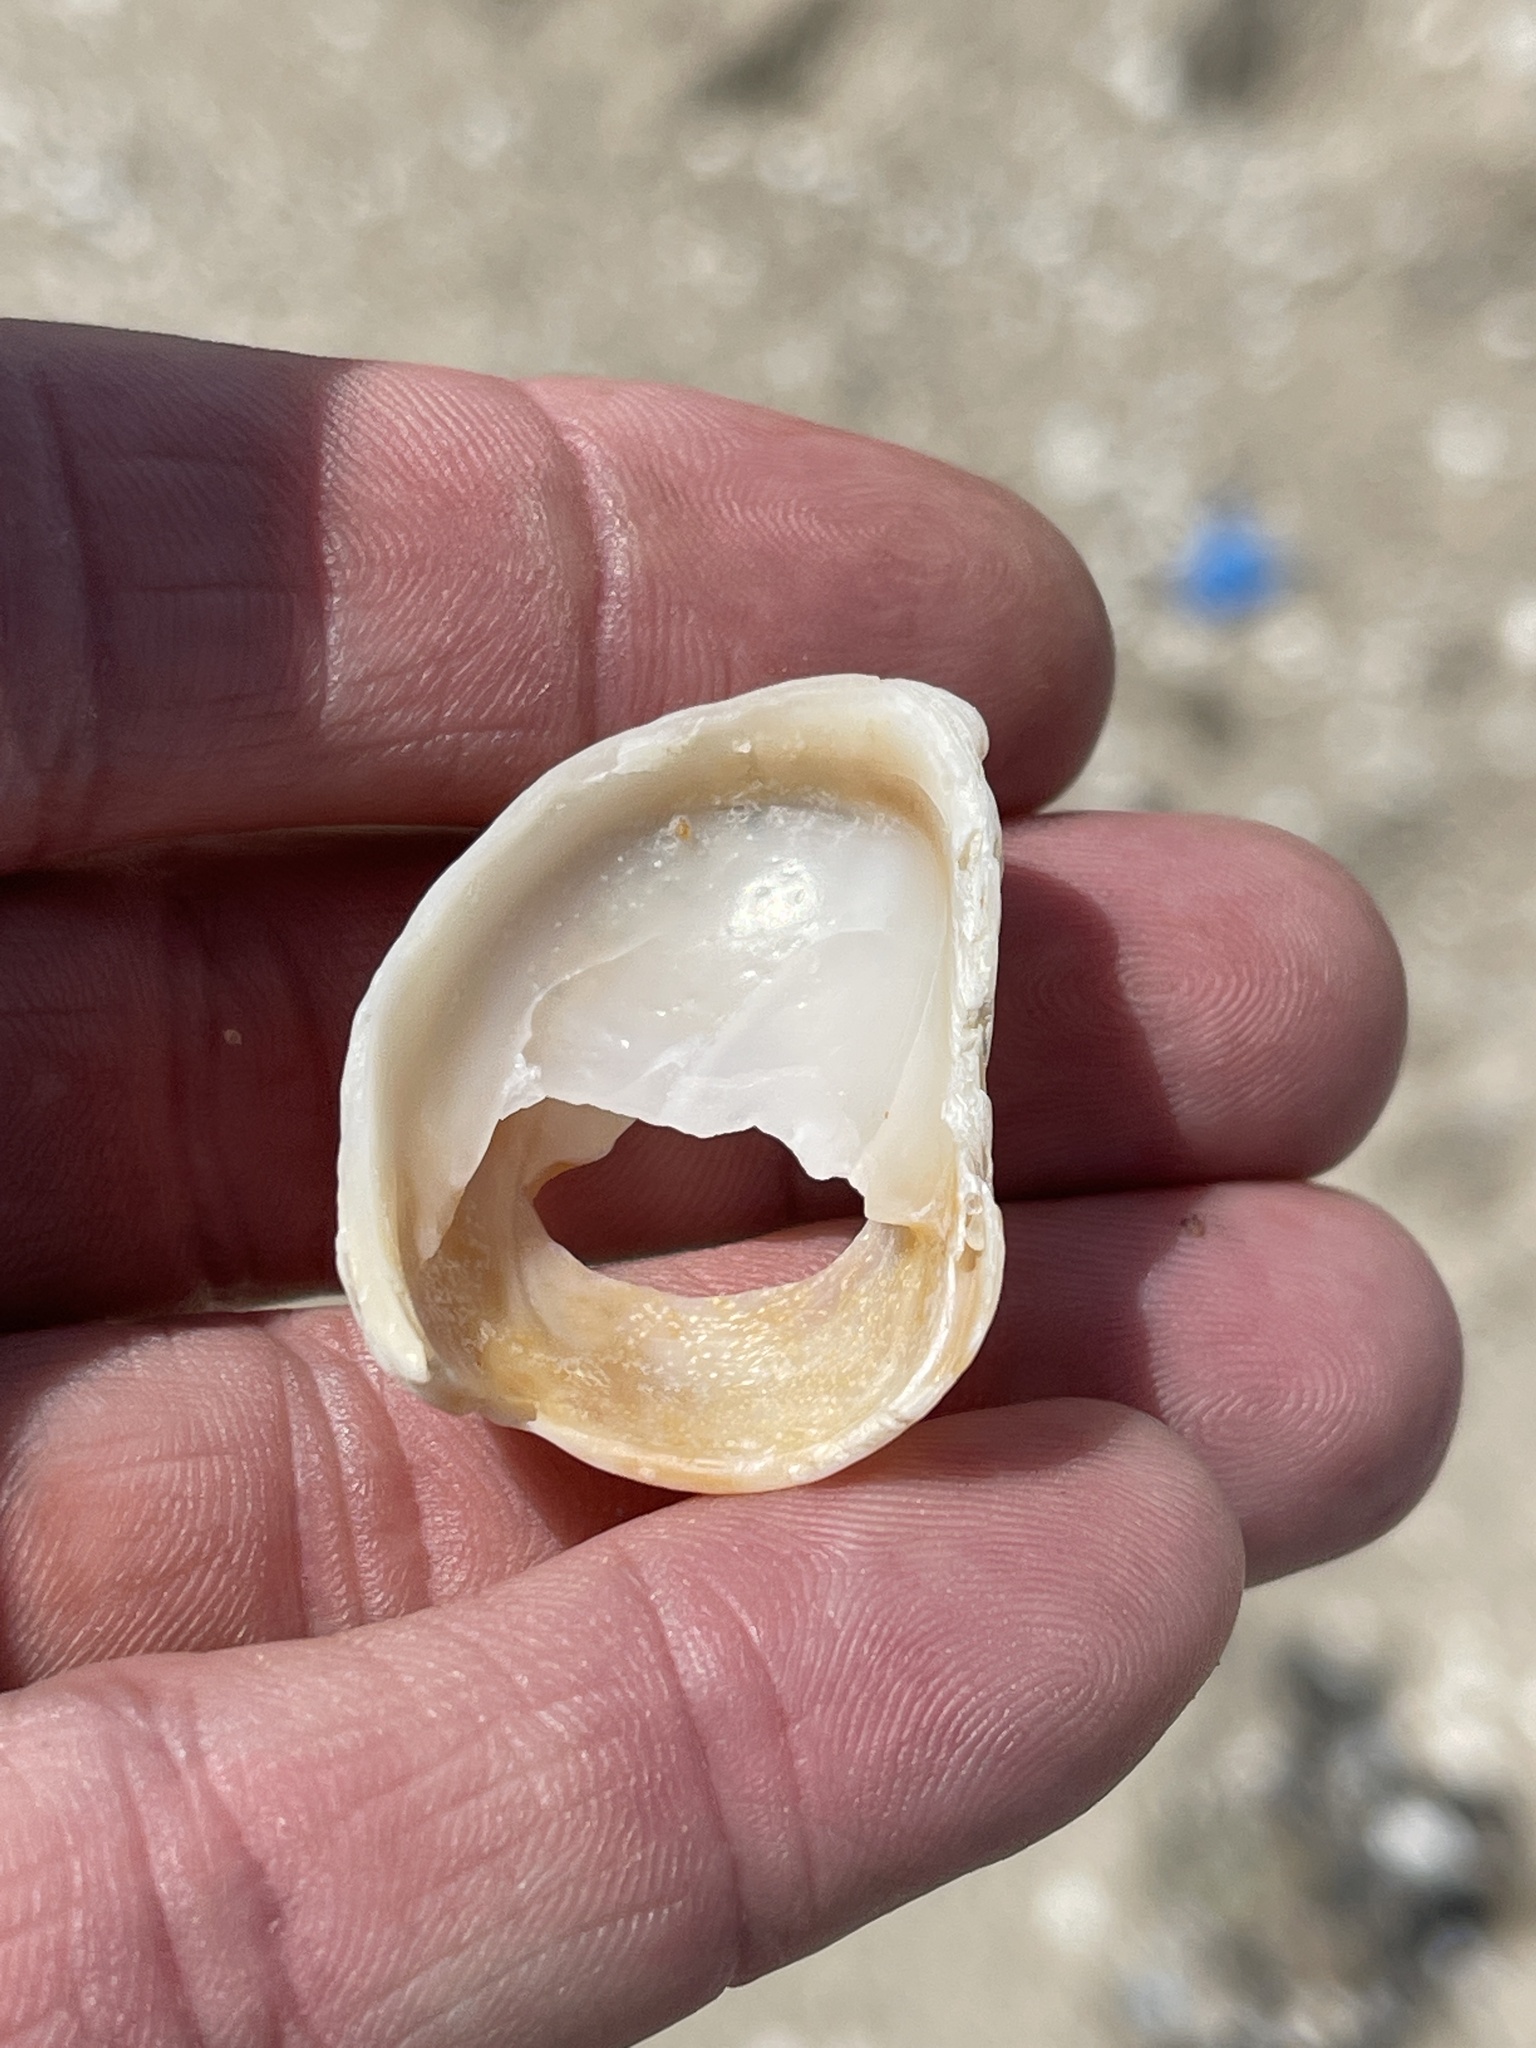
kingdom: Animalia
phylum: Mollusca
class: Gastropoda
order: Littorinimorpha
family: Calyptraeidae
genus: Crepidula
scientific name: Crepidula fornicata
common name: Slipper limpet
